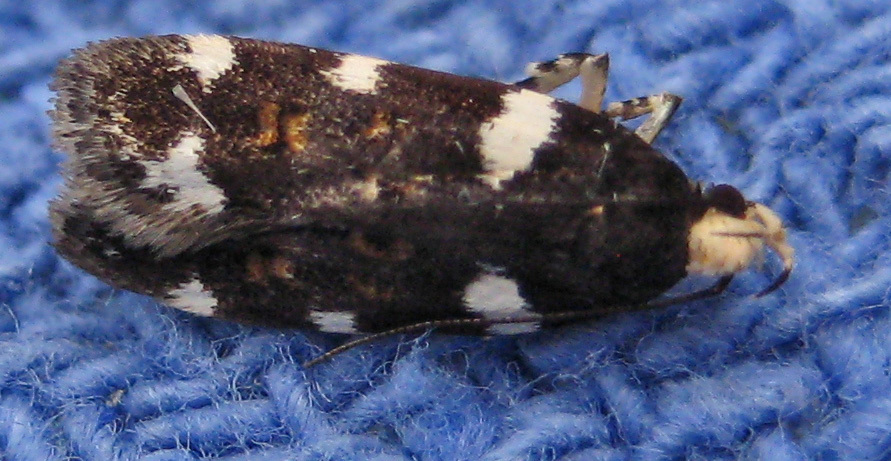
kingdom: Animalia
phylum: Arthropoda
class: Insecta
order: Lepidoptera
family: Gelechiidae
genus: Fascista
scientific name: Fascista cercerisella
